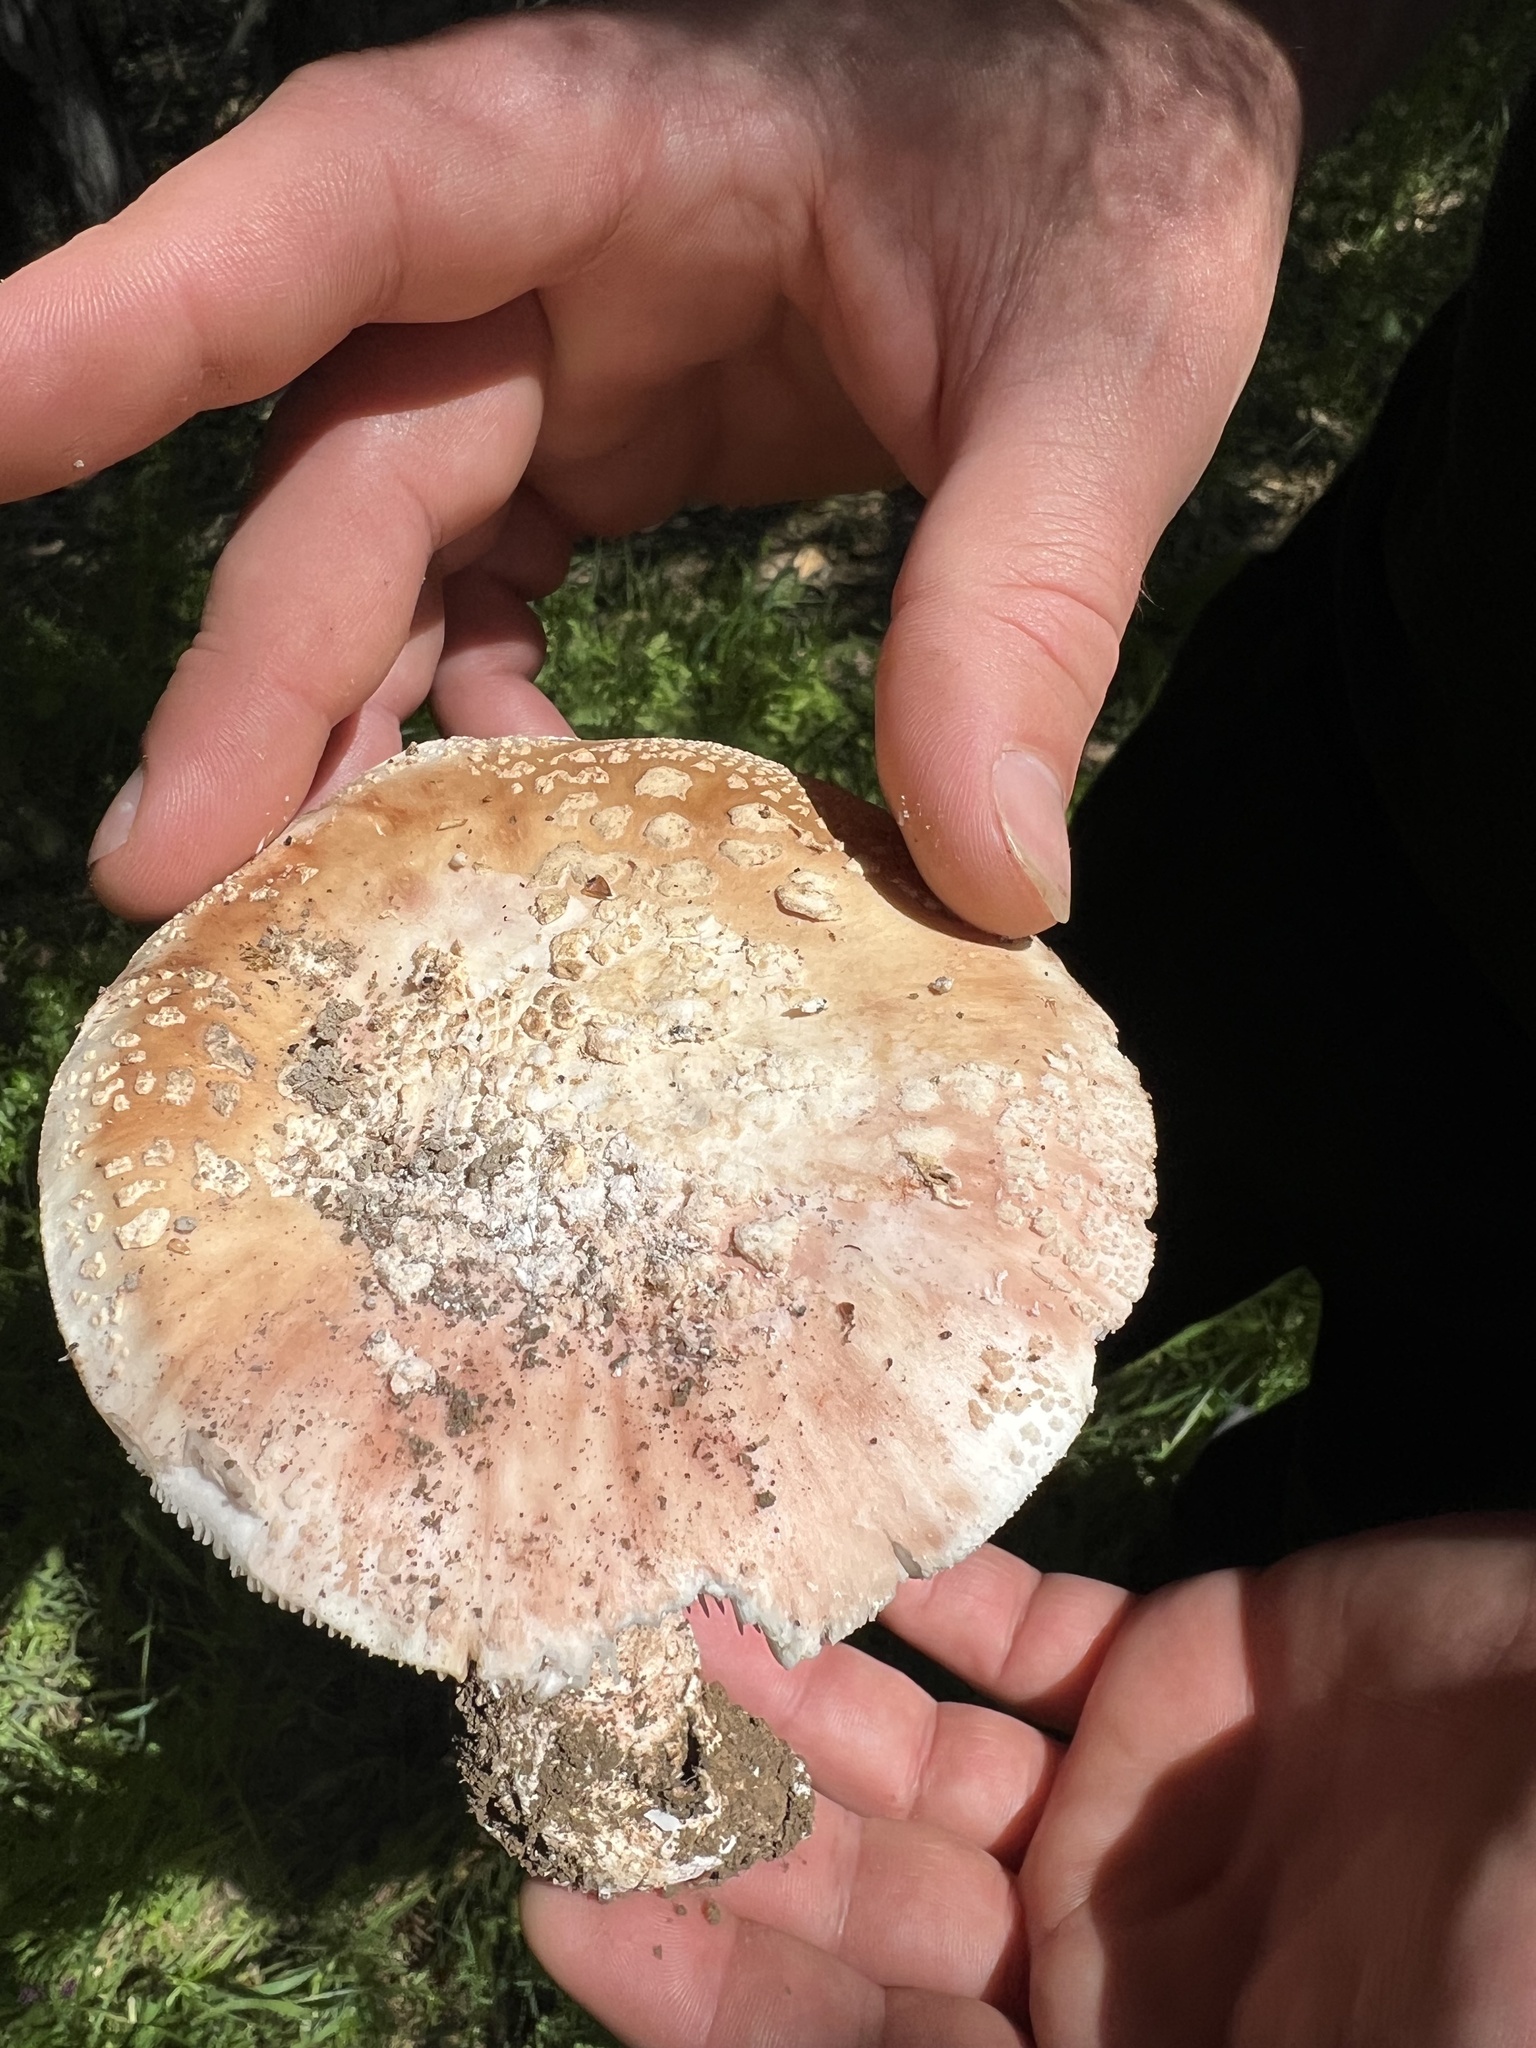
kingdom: Fungi
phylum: Basidiomycota
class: Agaricomycetes
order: Agaricales
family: Amanitaceae
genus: Amanita
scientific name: Amanita novinupta
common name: Blushing bride
